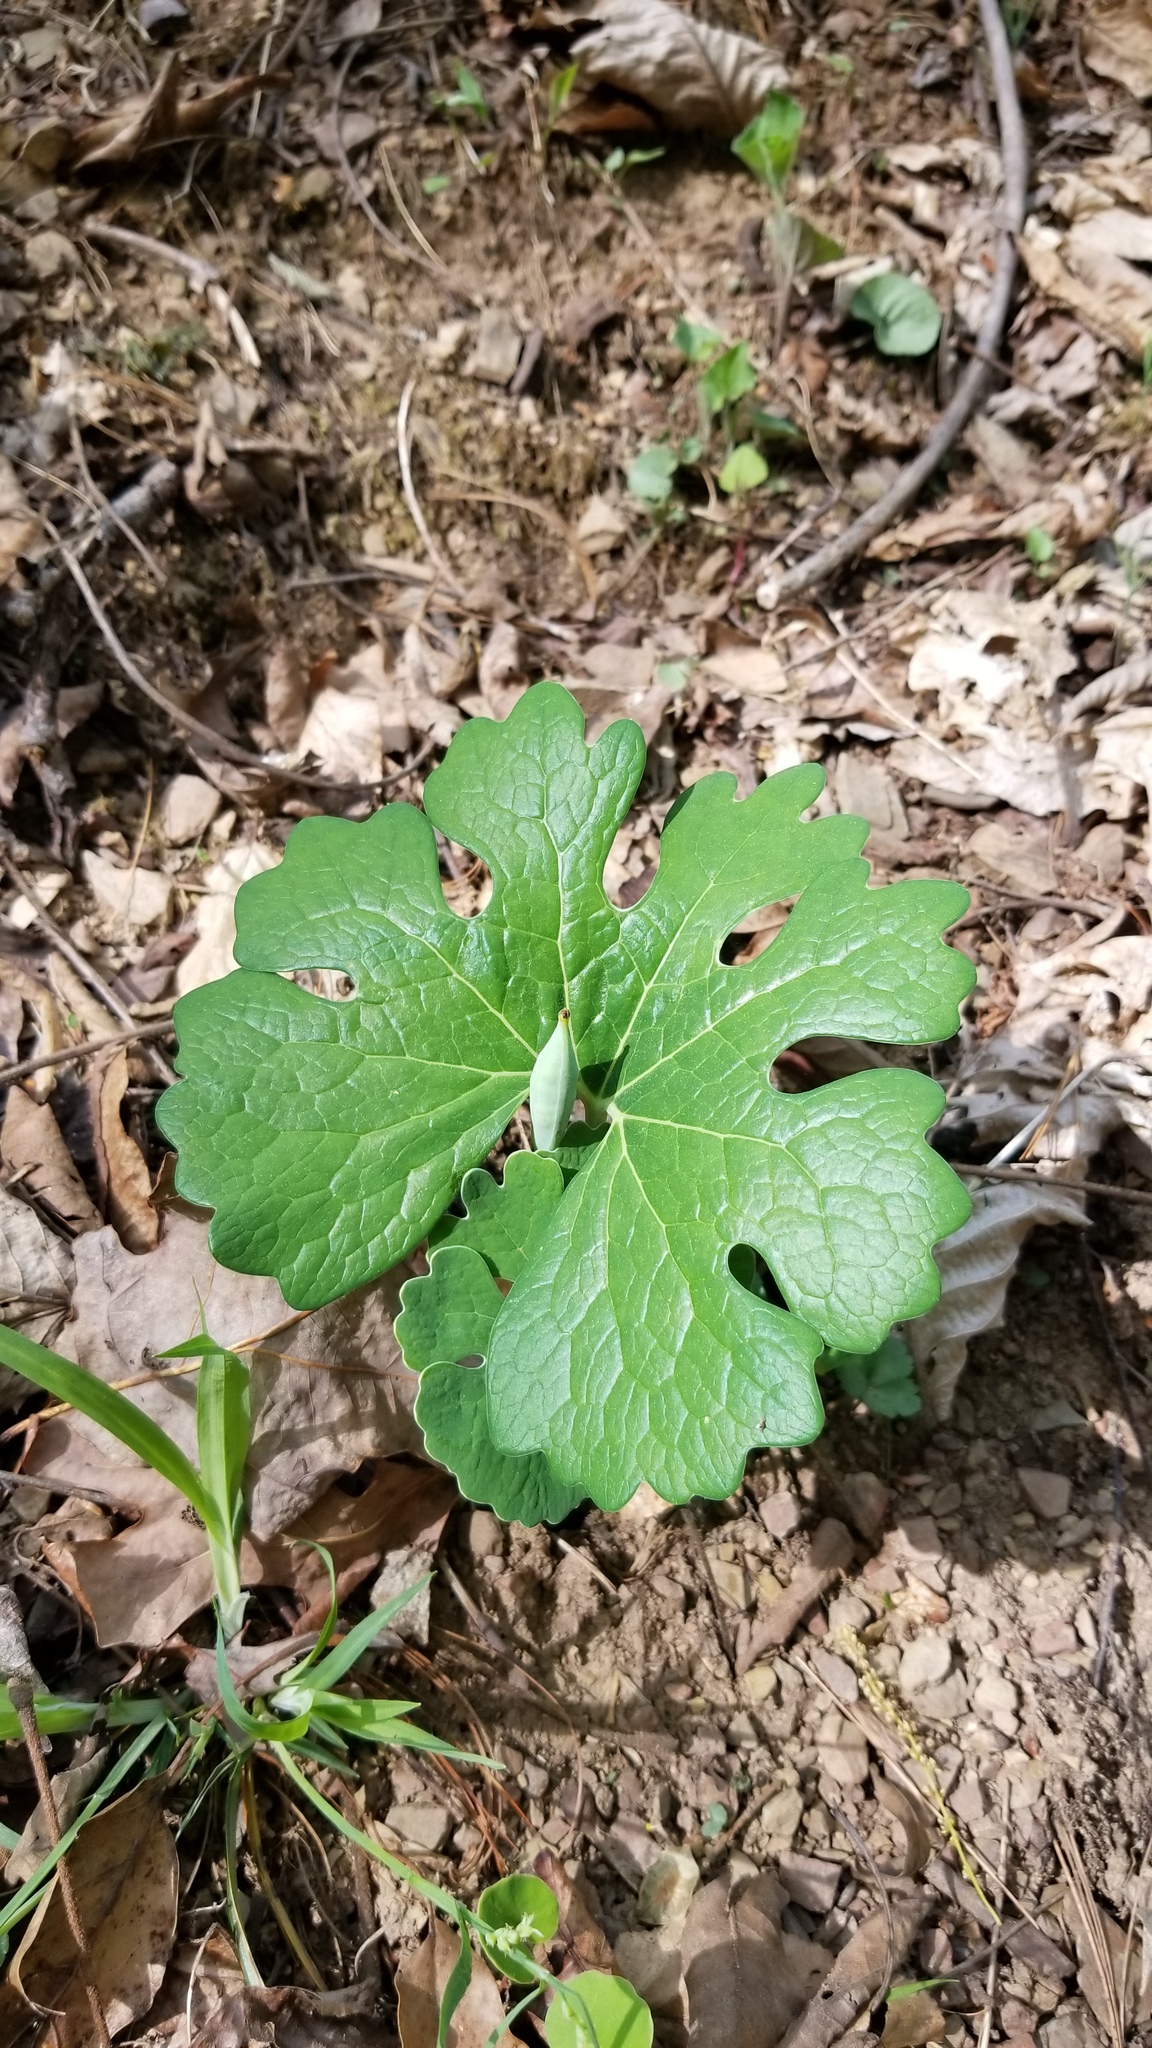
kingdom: Plantae
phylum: Tracheophyta
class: Magnoliopsida
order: Ranunculales
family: Papaveraceae
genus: Sanguinaria
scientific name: Sanguinaria canadensis
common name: Bloodroot
